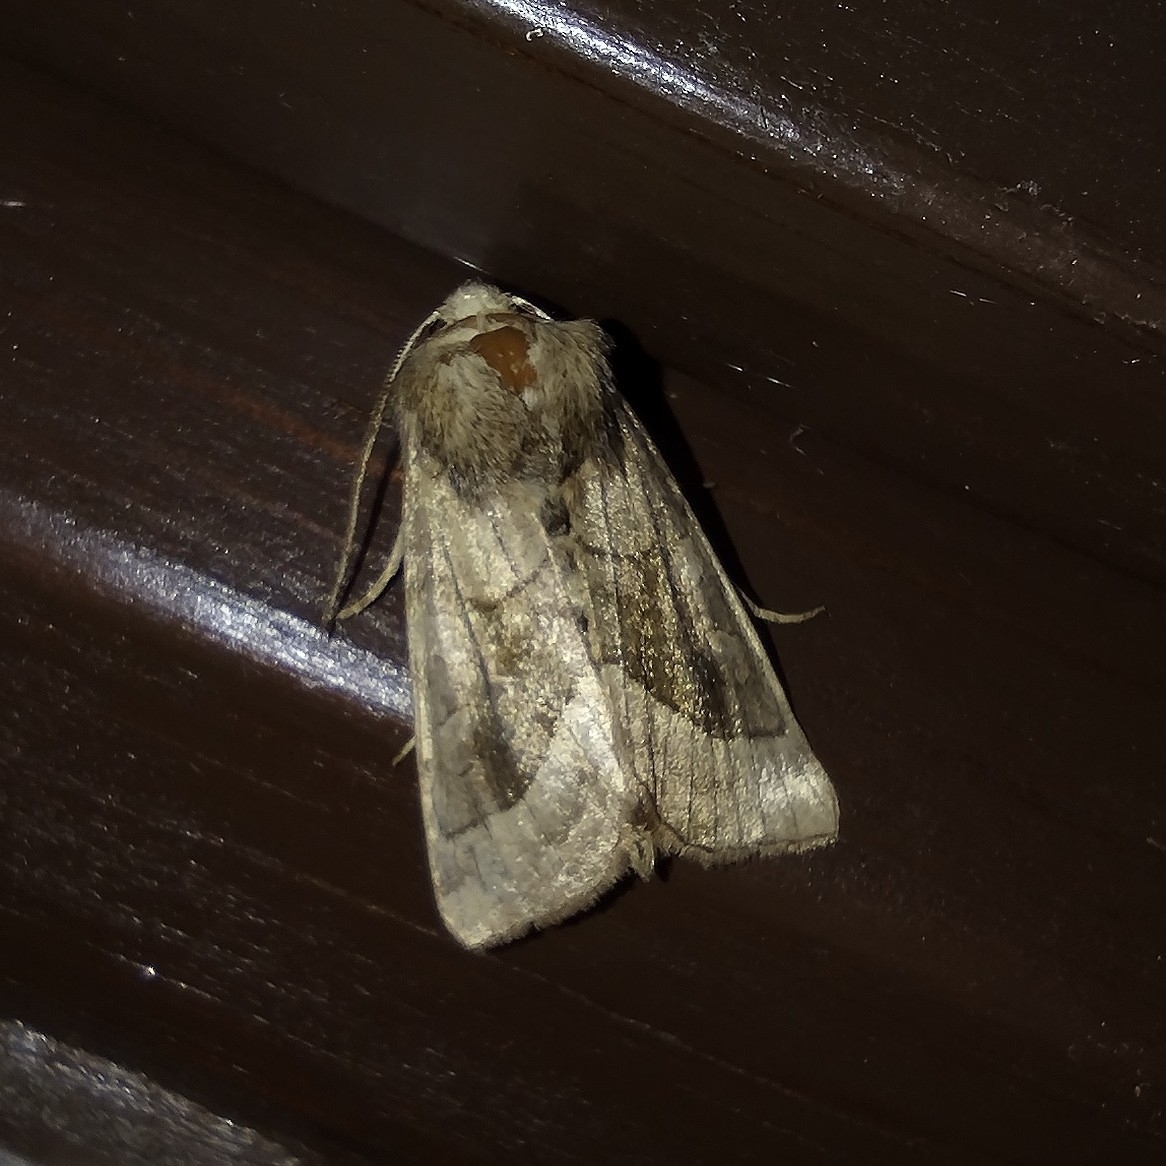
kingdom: Animalia
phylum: Arthropoda
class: Insecta
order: Lepidoptera
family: Noctuidae
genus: Hydraecia
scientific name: Hydraecia micacea
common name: Rosy rustic
